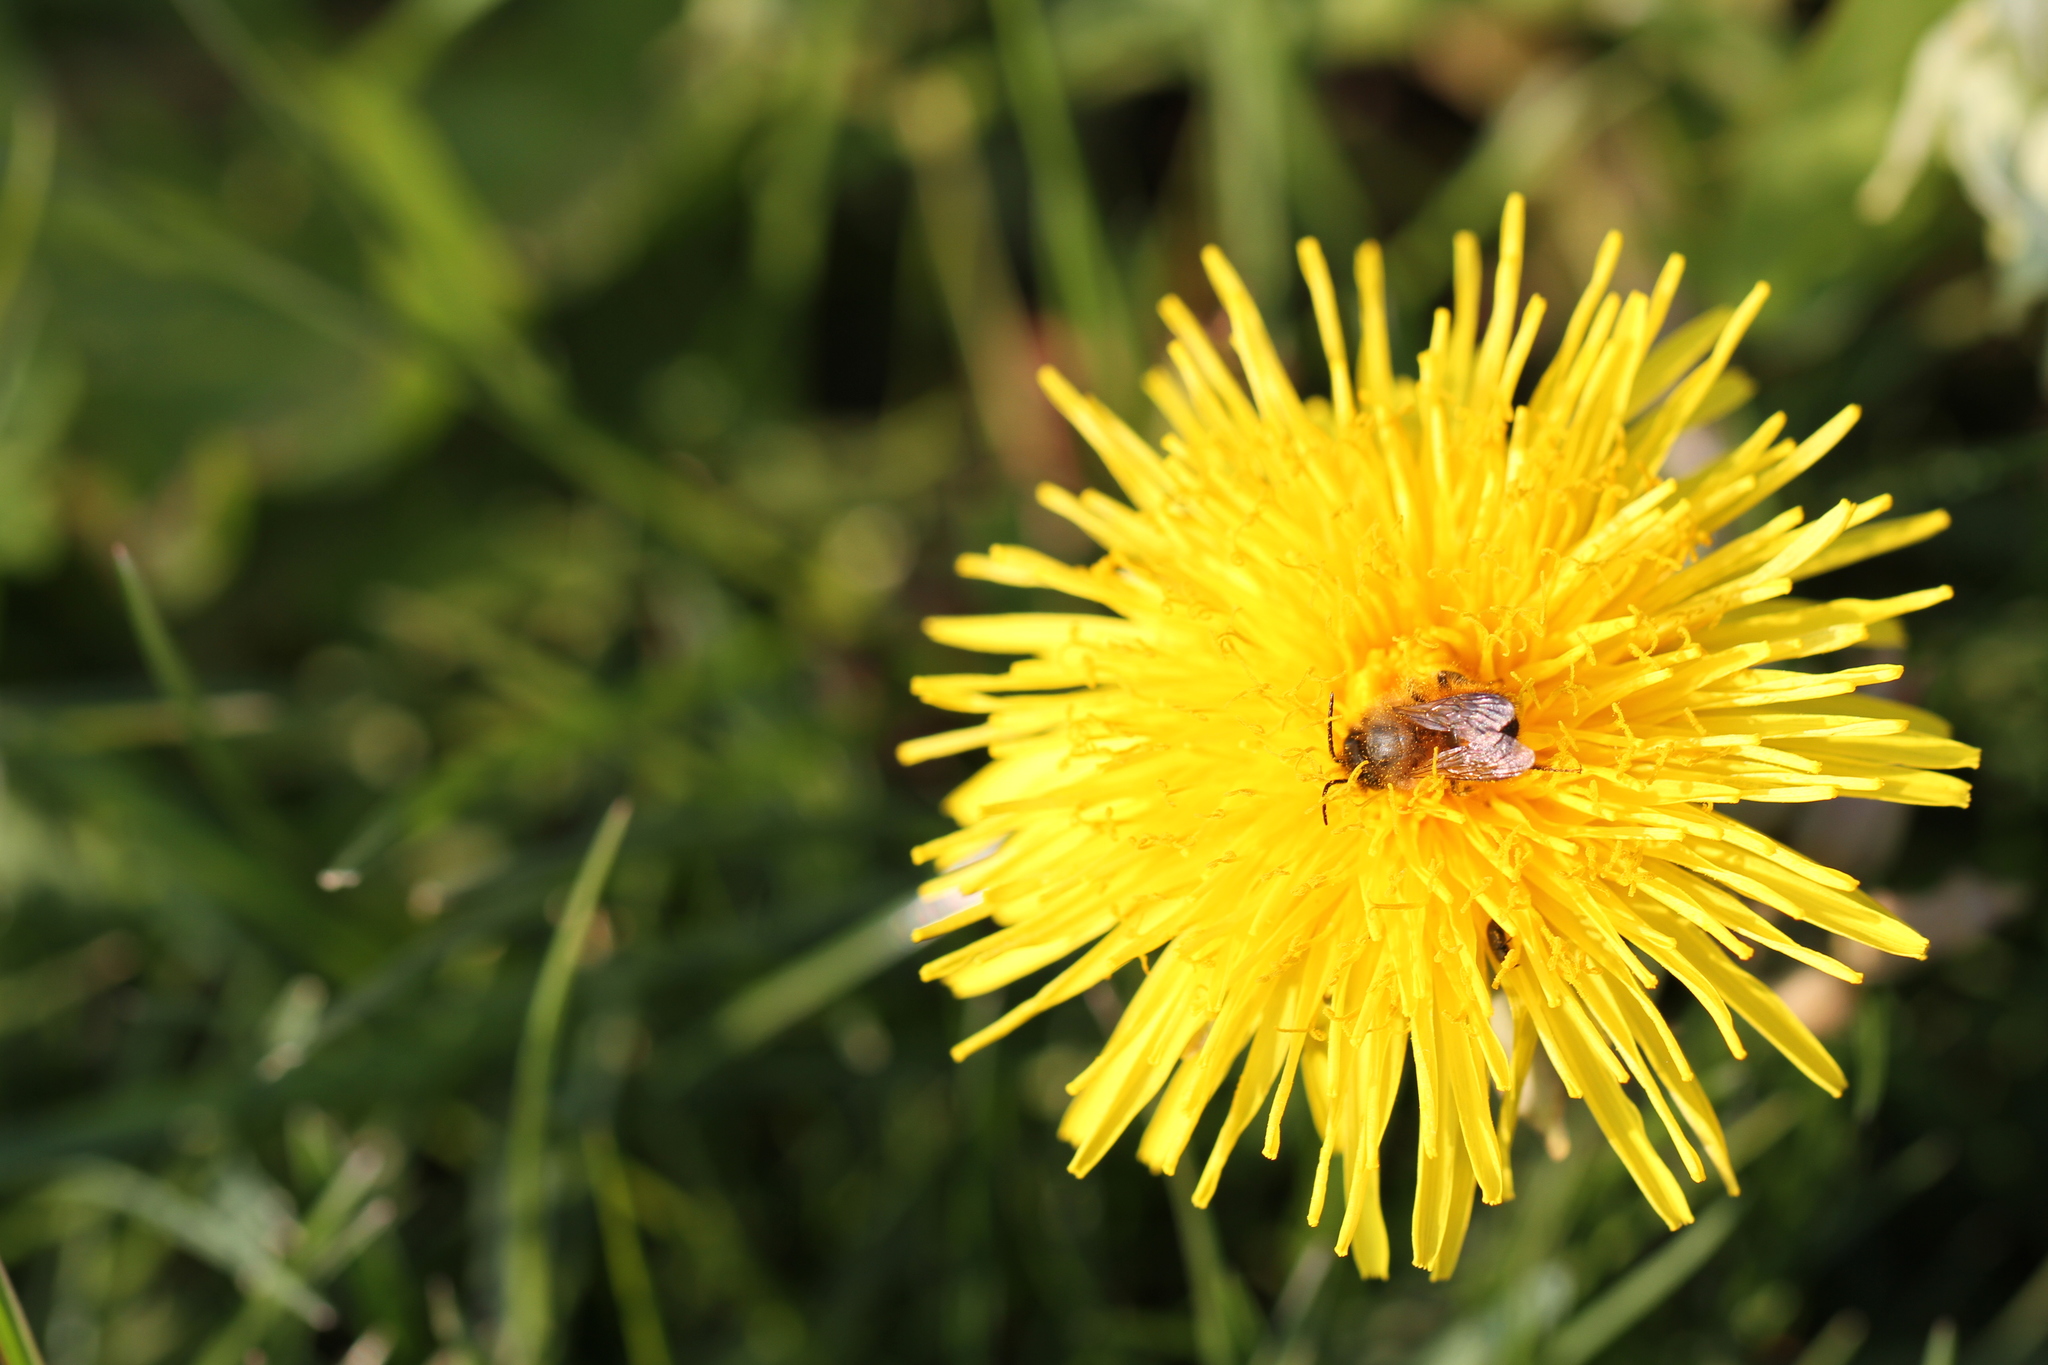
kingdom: Animalia
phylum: Arthropoda
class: Insecta
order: Hymenoptera
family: Megachilidae
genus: Osmia
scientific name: Osmia bicornis
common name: Red mason bee
